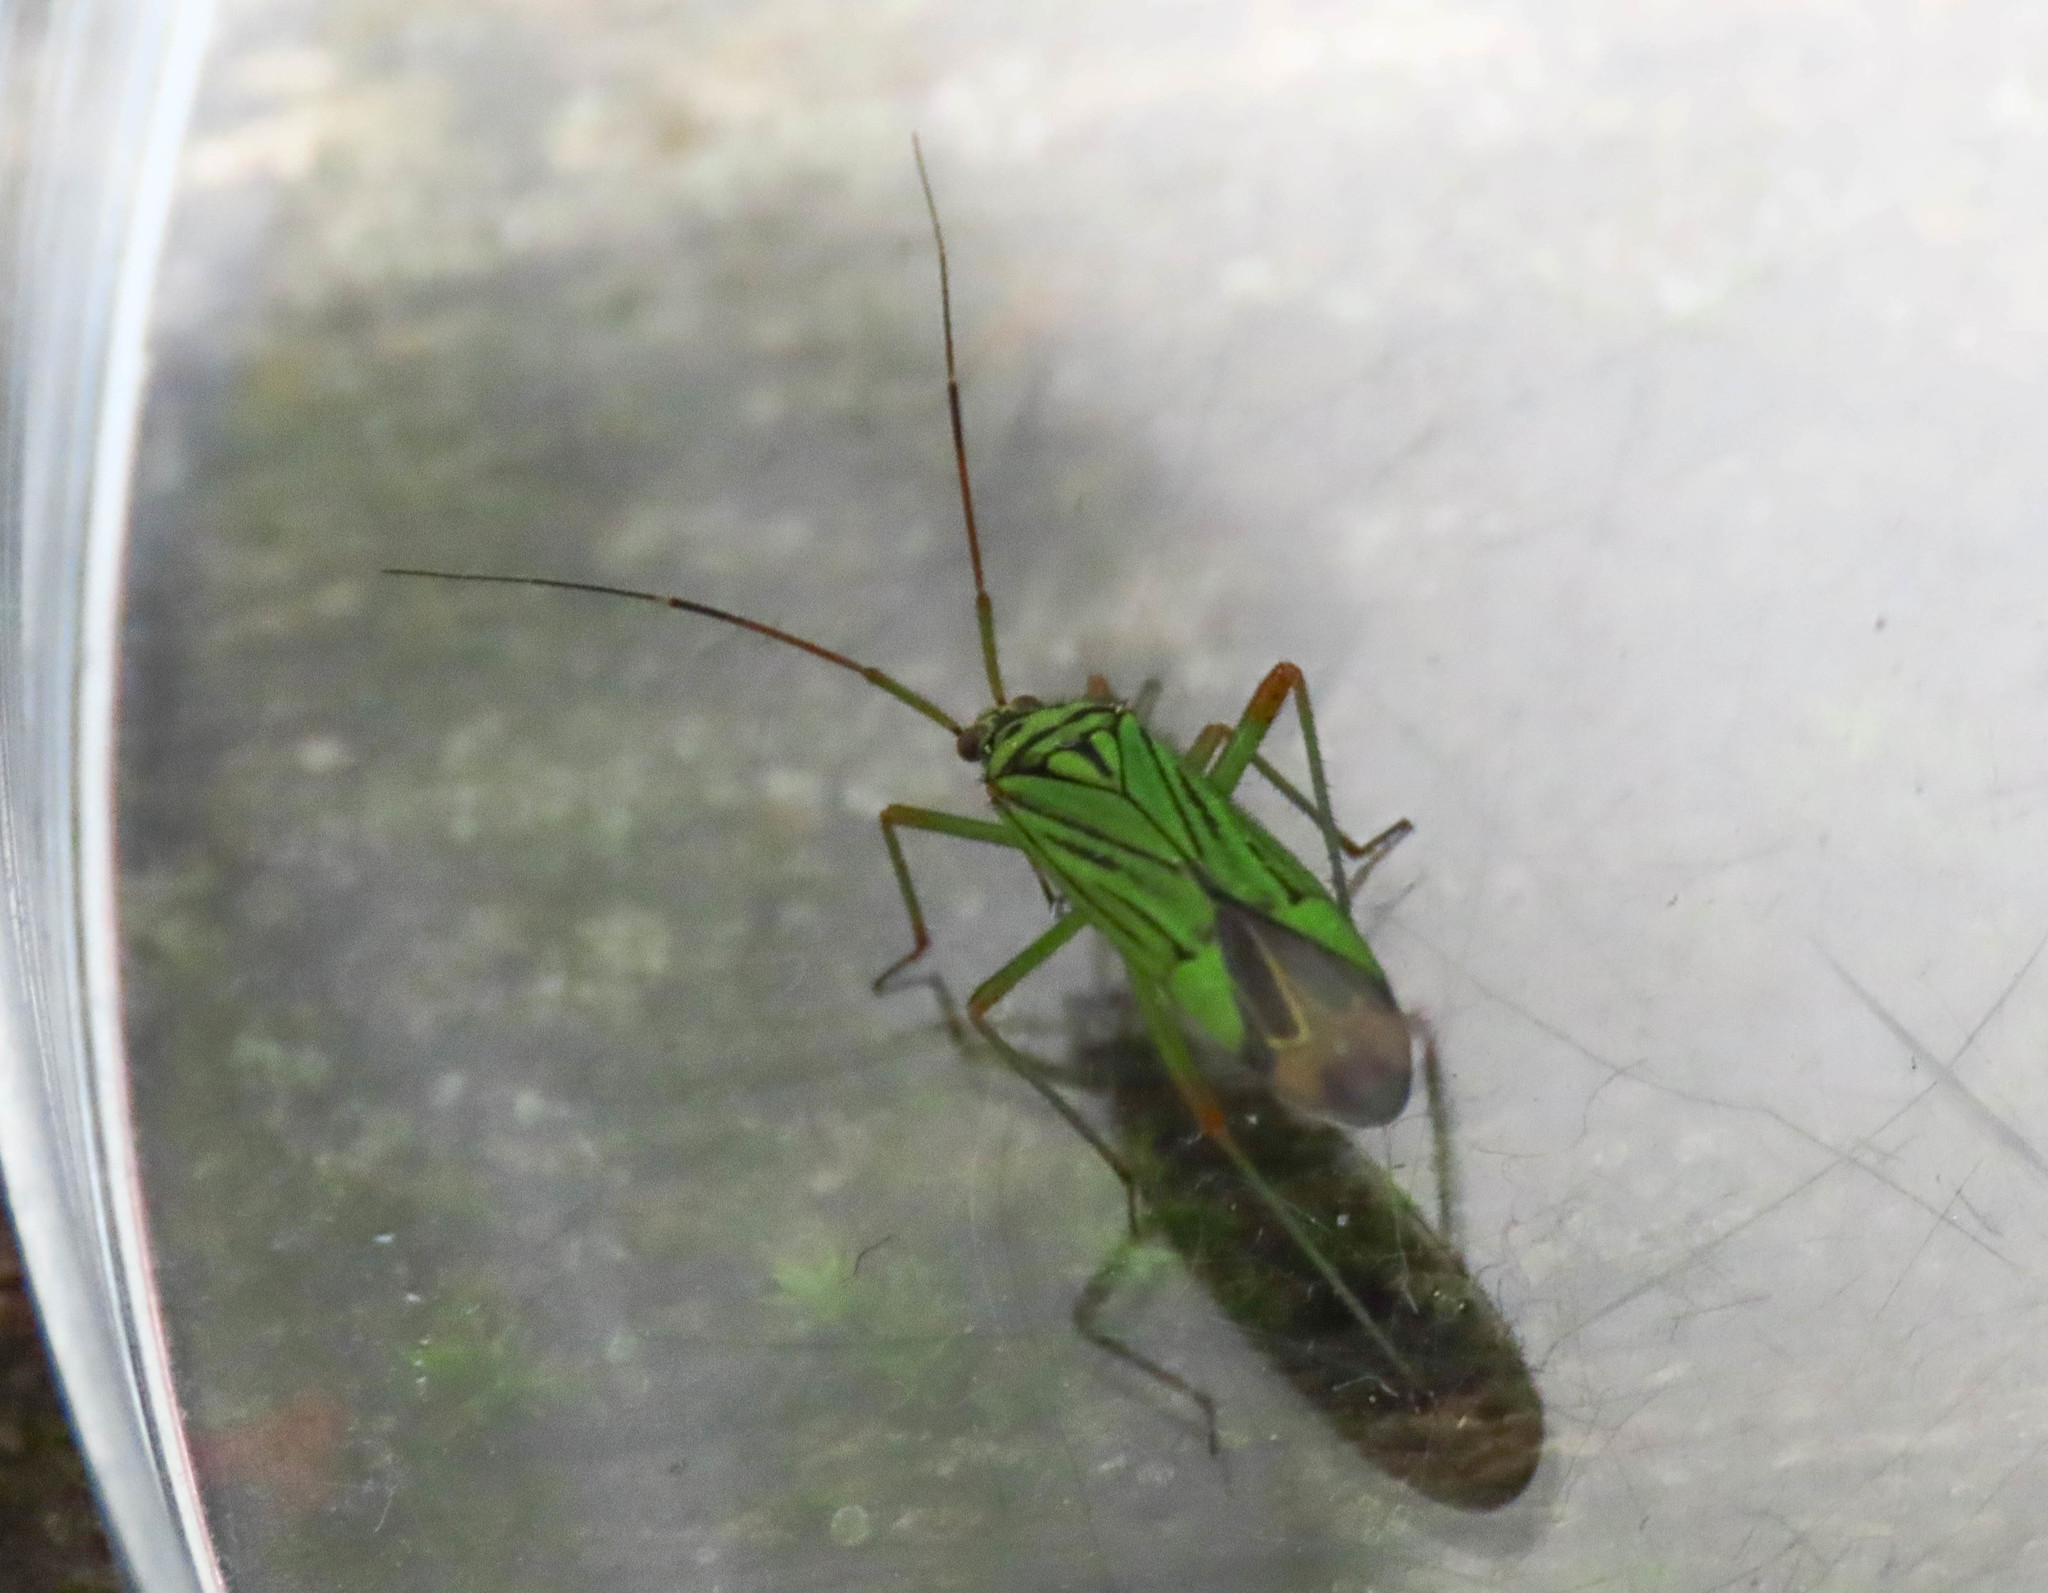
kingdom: Animalia
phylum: Arthropoda
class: Insecta
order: Hemiptera
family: Miridae
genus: Mermitelocerus
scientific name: Mermitelocerus schmidtii
